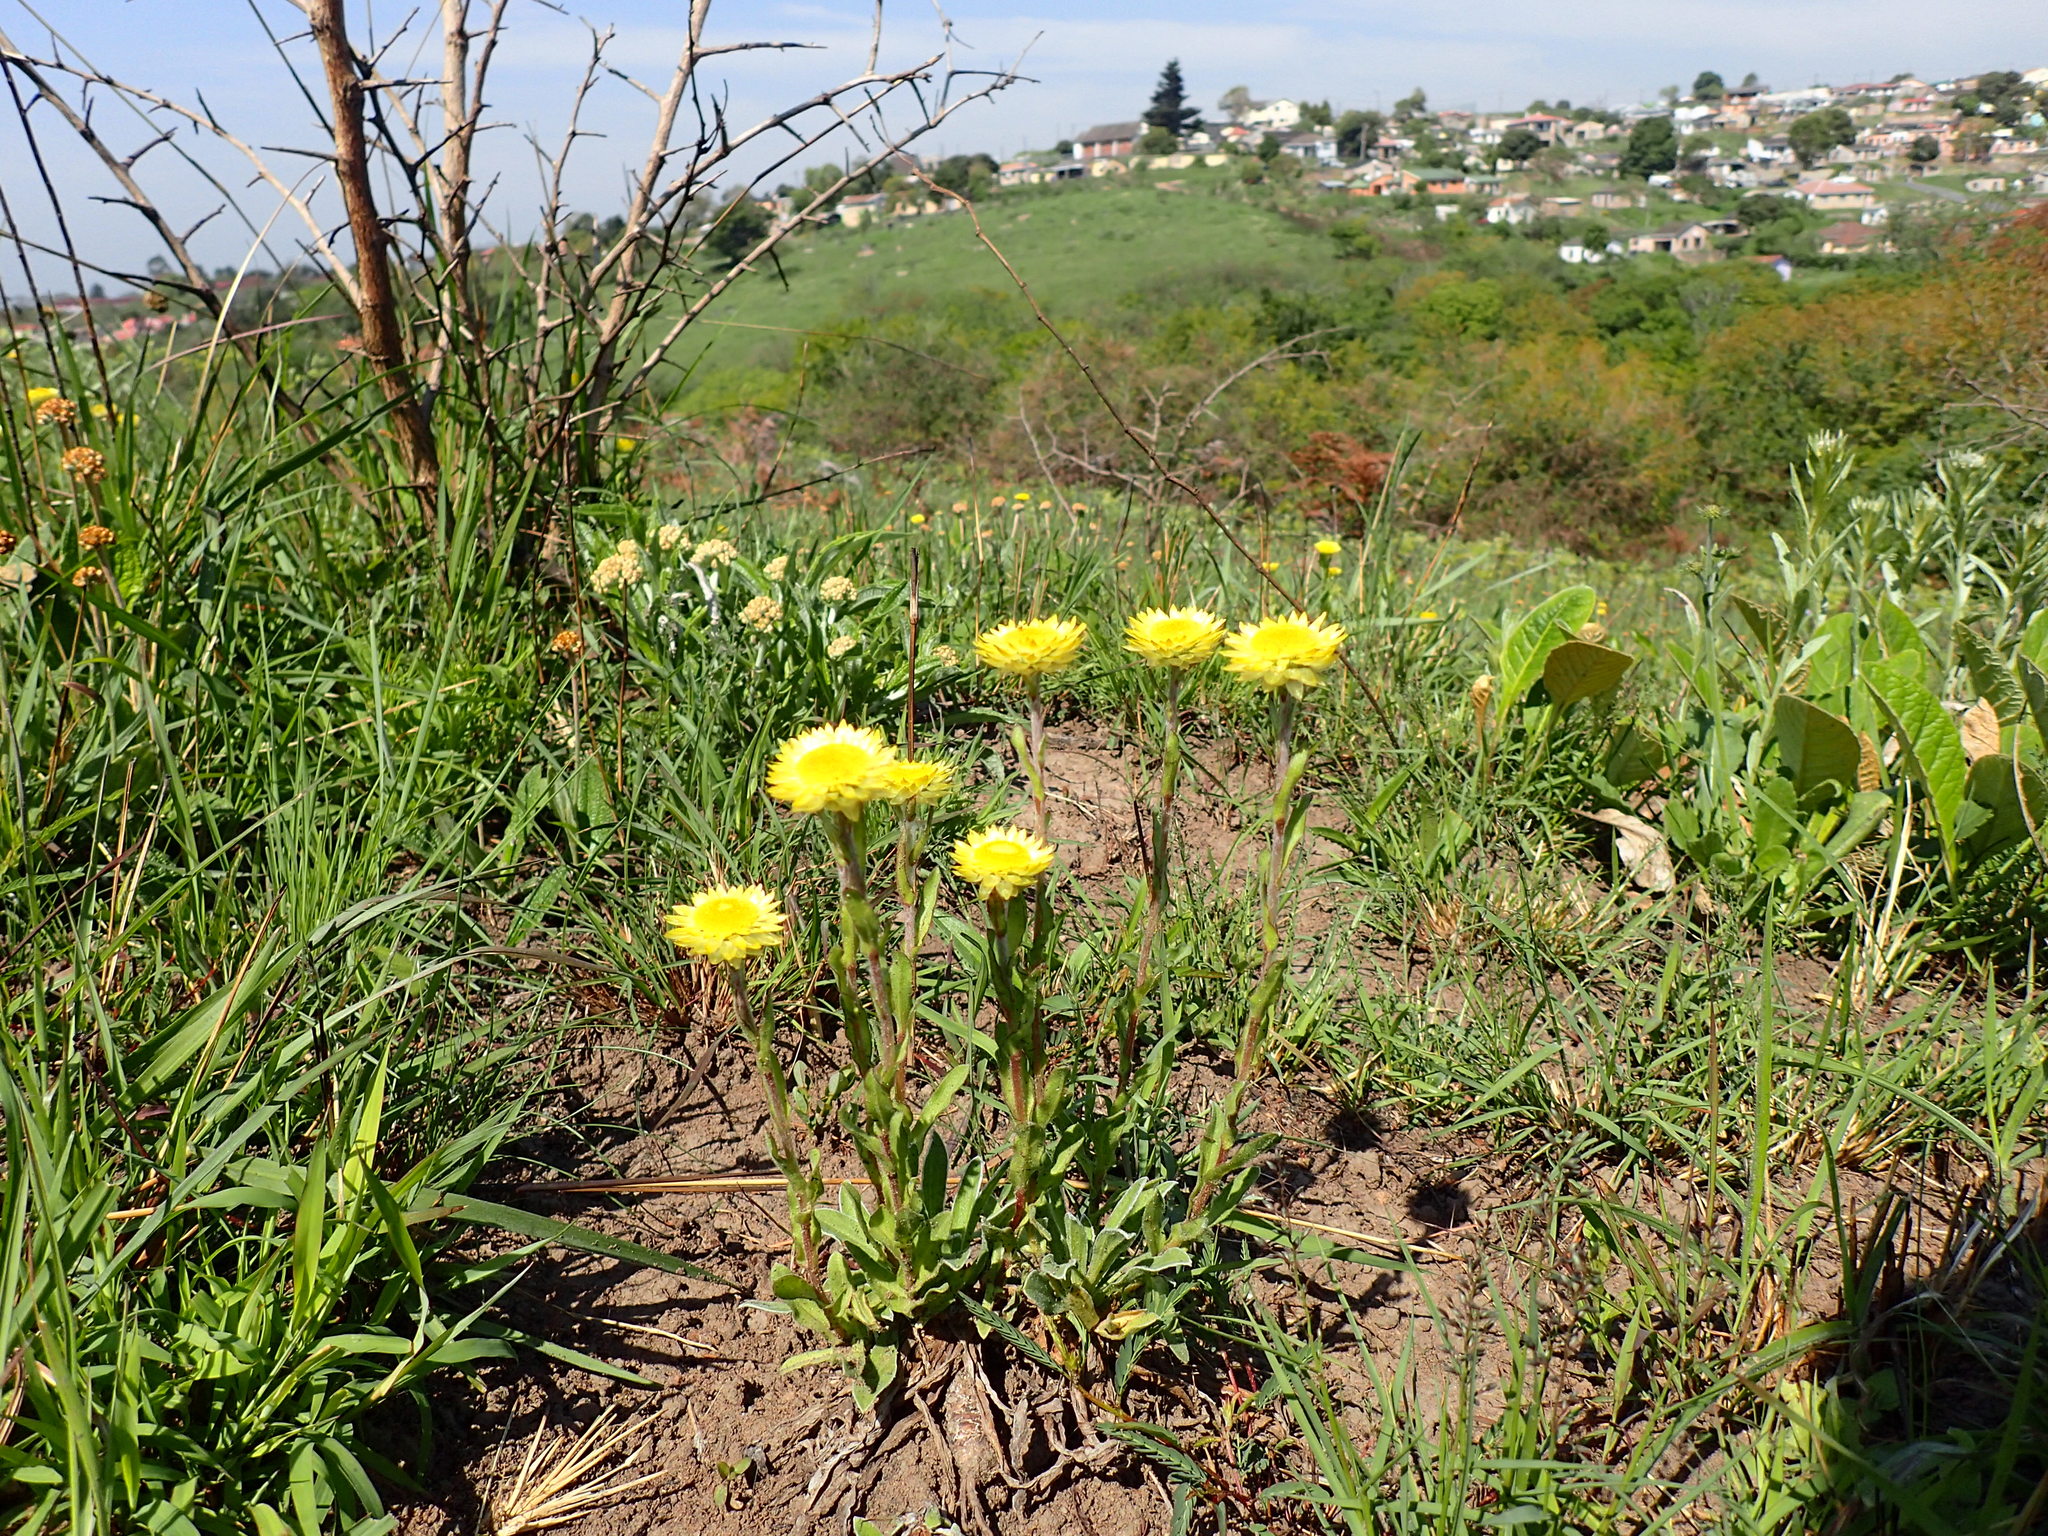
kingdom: Plantae
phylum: Tracheophyta
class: Magnoliopsida
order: Asterales
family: Asteraceae
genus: Helichrysum
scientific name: Helichrysum aureum
